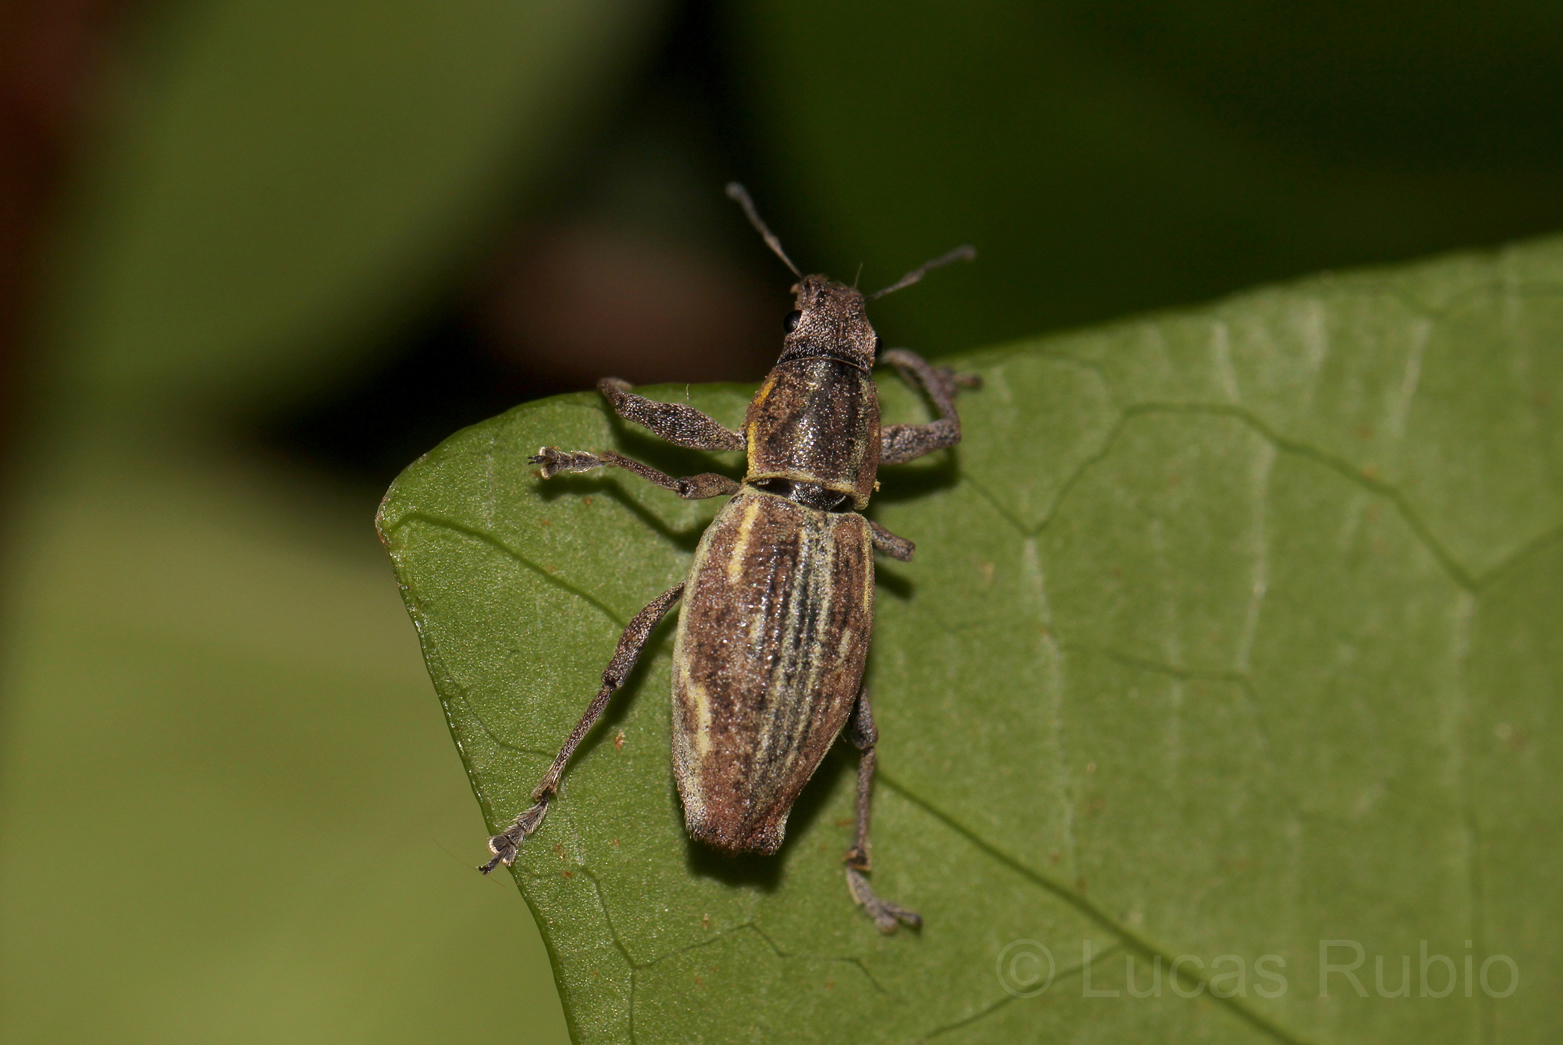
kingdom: Animalia
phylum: Arthropoda
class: Insecta
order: Coleoptera
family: Curculionidae
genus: Naupactus
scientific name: Naupactus xanthographus
